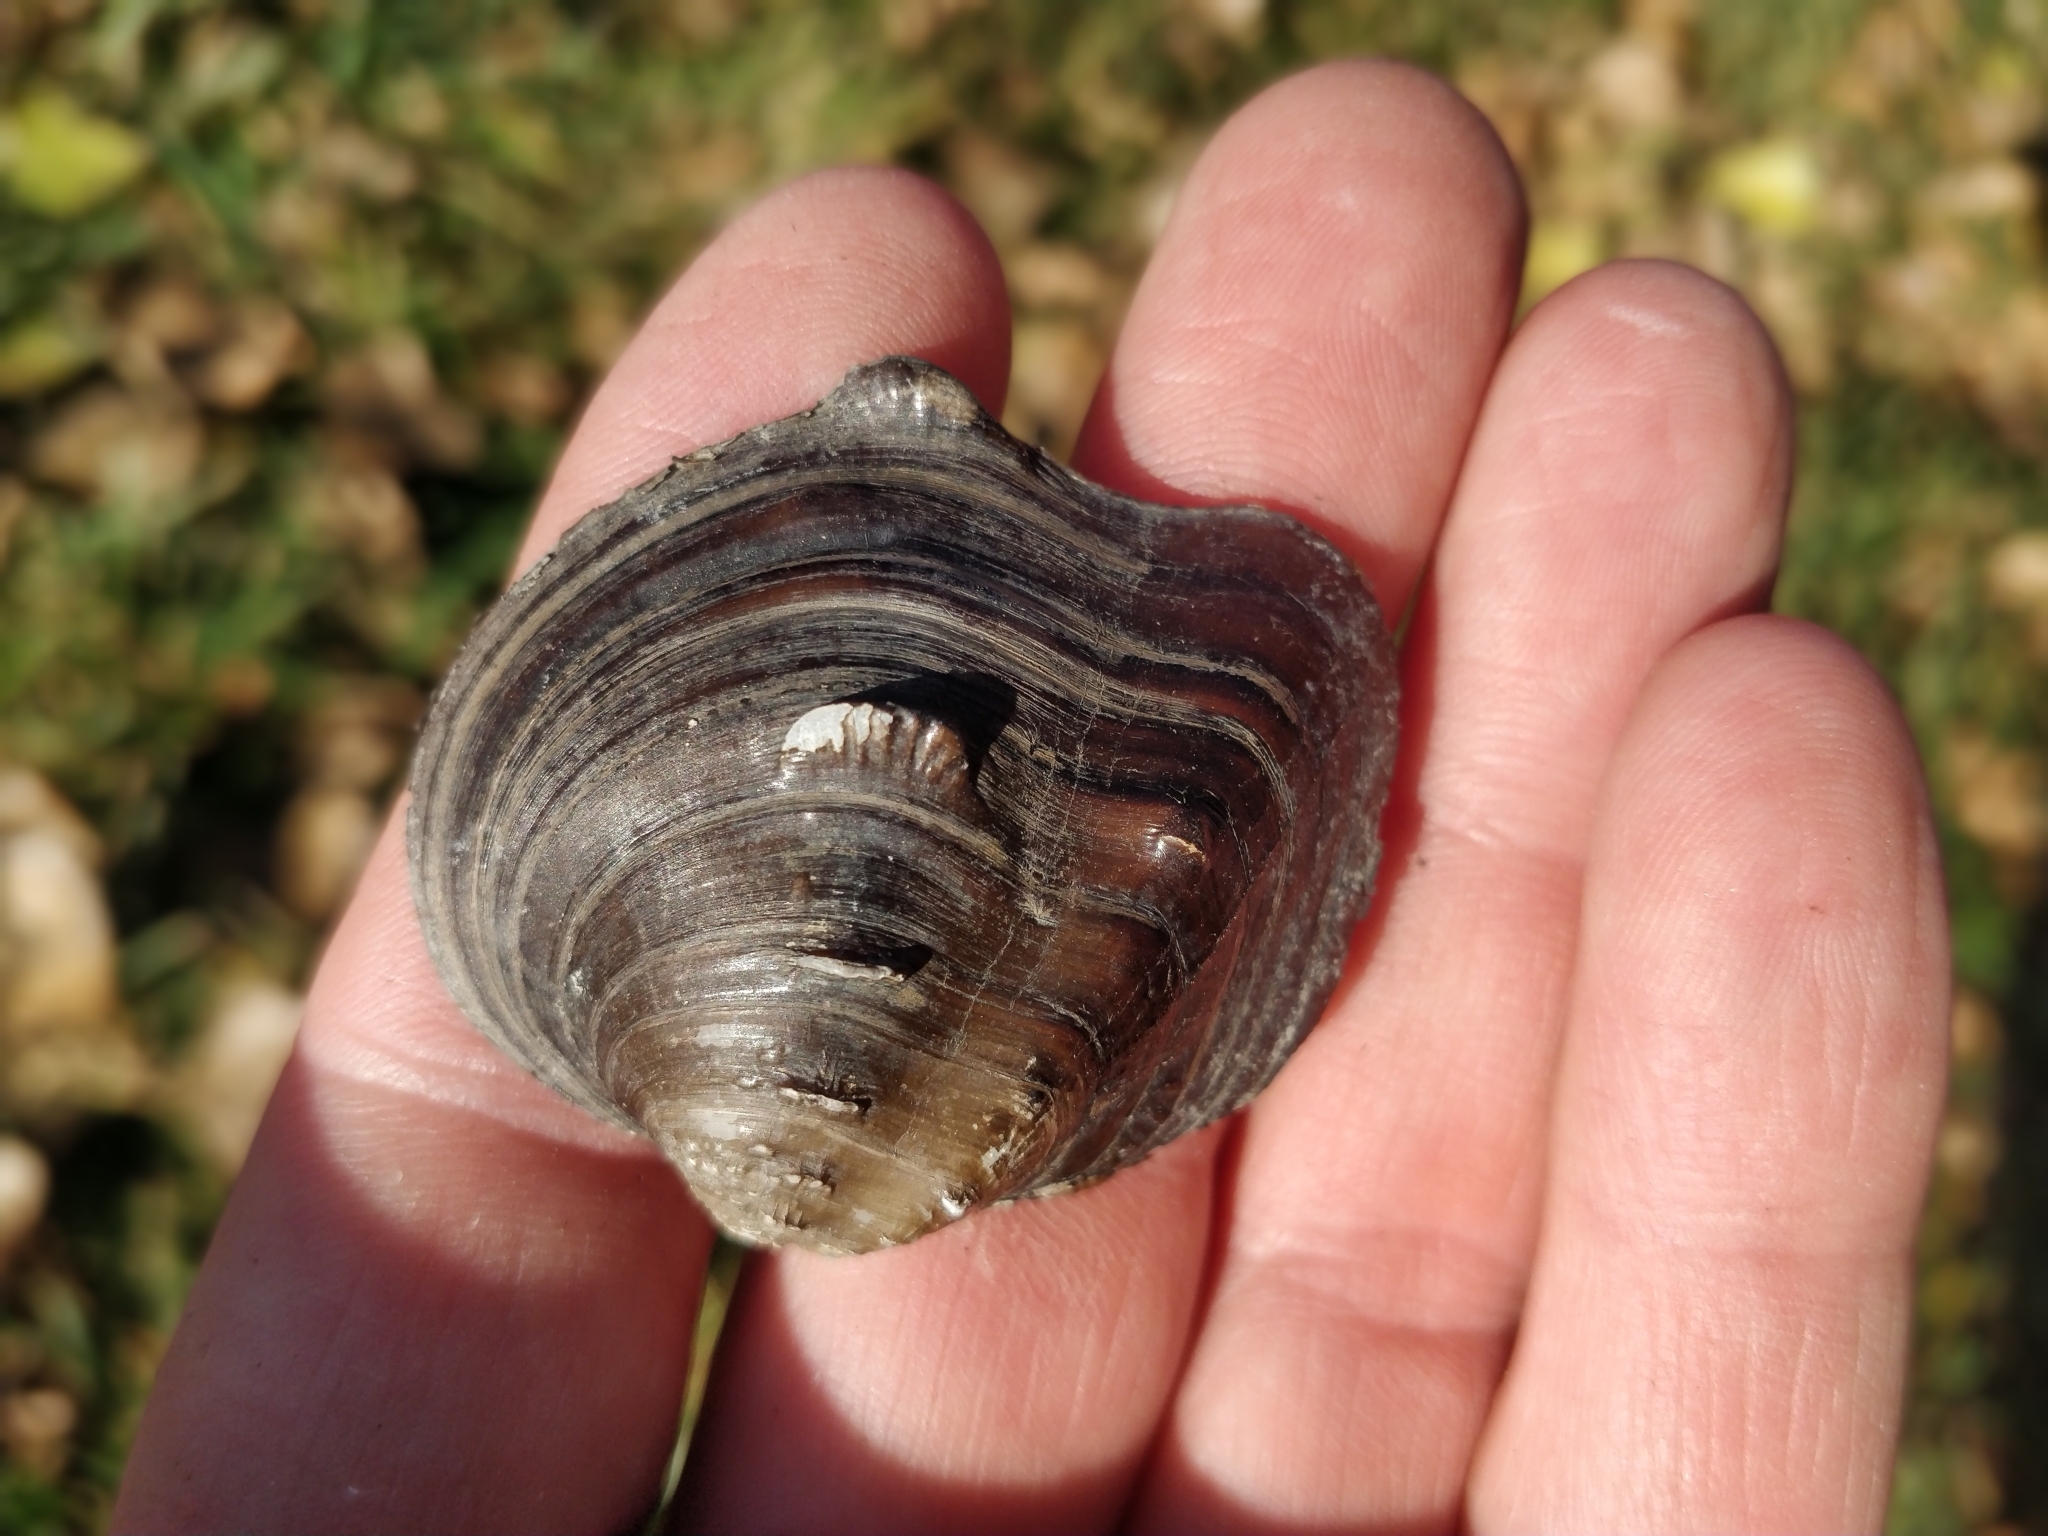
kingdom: Animalia
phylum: Mollusca
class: Bivalvia
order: Unionida
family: Unionidae
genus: Quadrula
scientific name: Quadrula quadrula
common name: Mapleleaf
